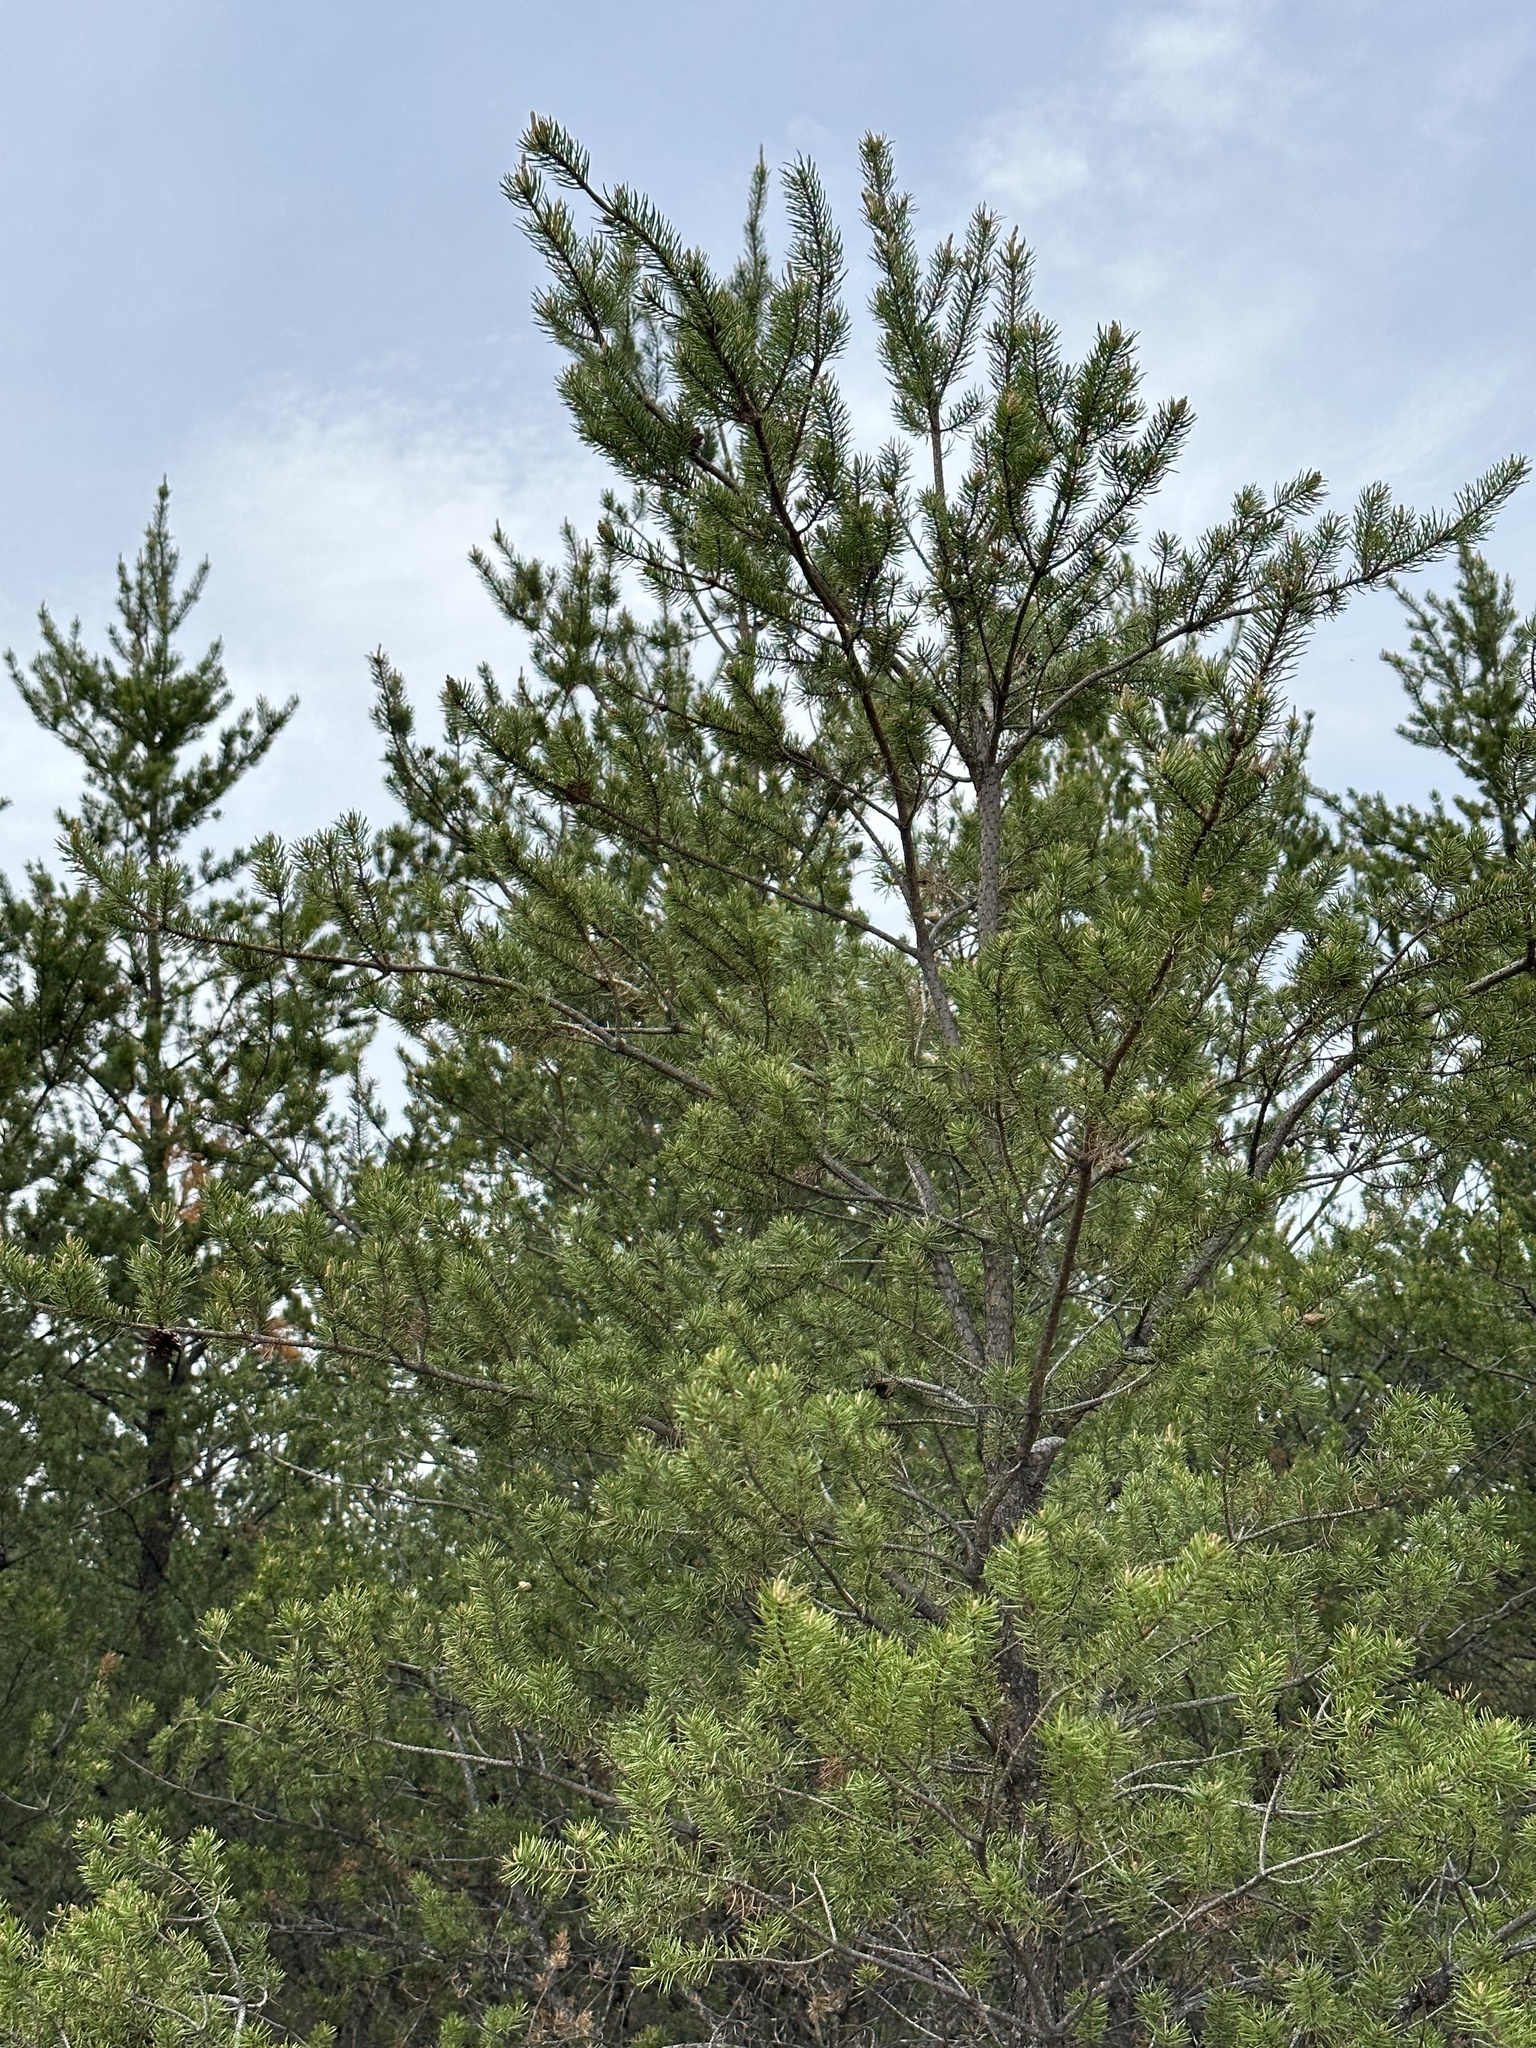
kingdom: Plantae
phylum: Tracheophyta
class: Pinopsida
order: Pinales
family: Pinaceae
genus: Pinus
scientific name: Pinus banksiana
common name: Jack pine
